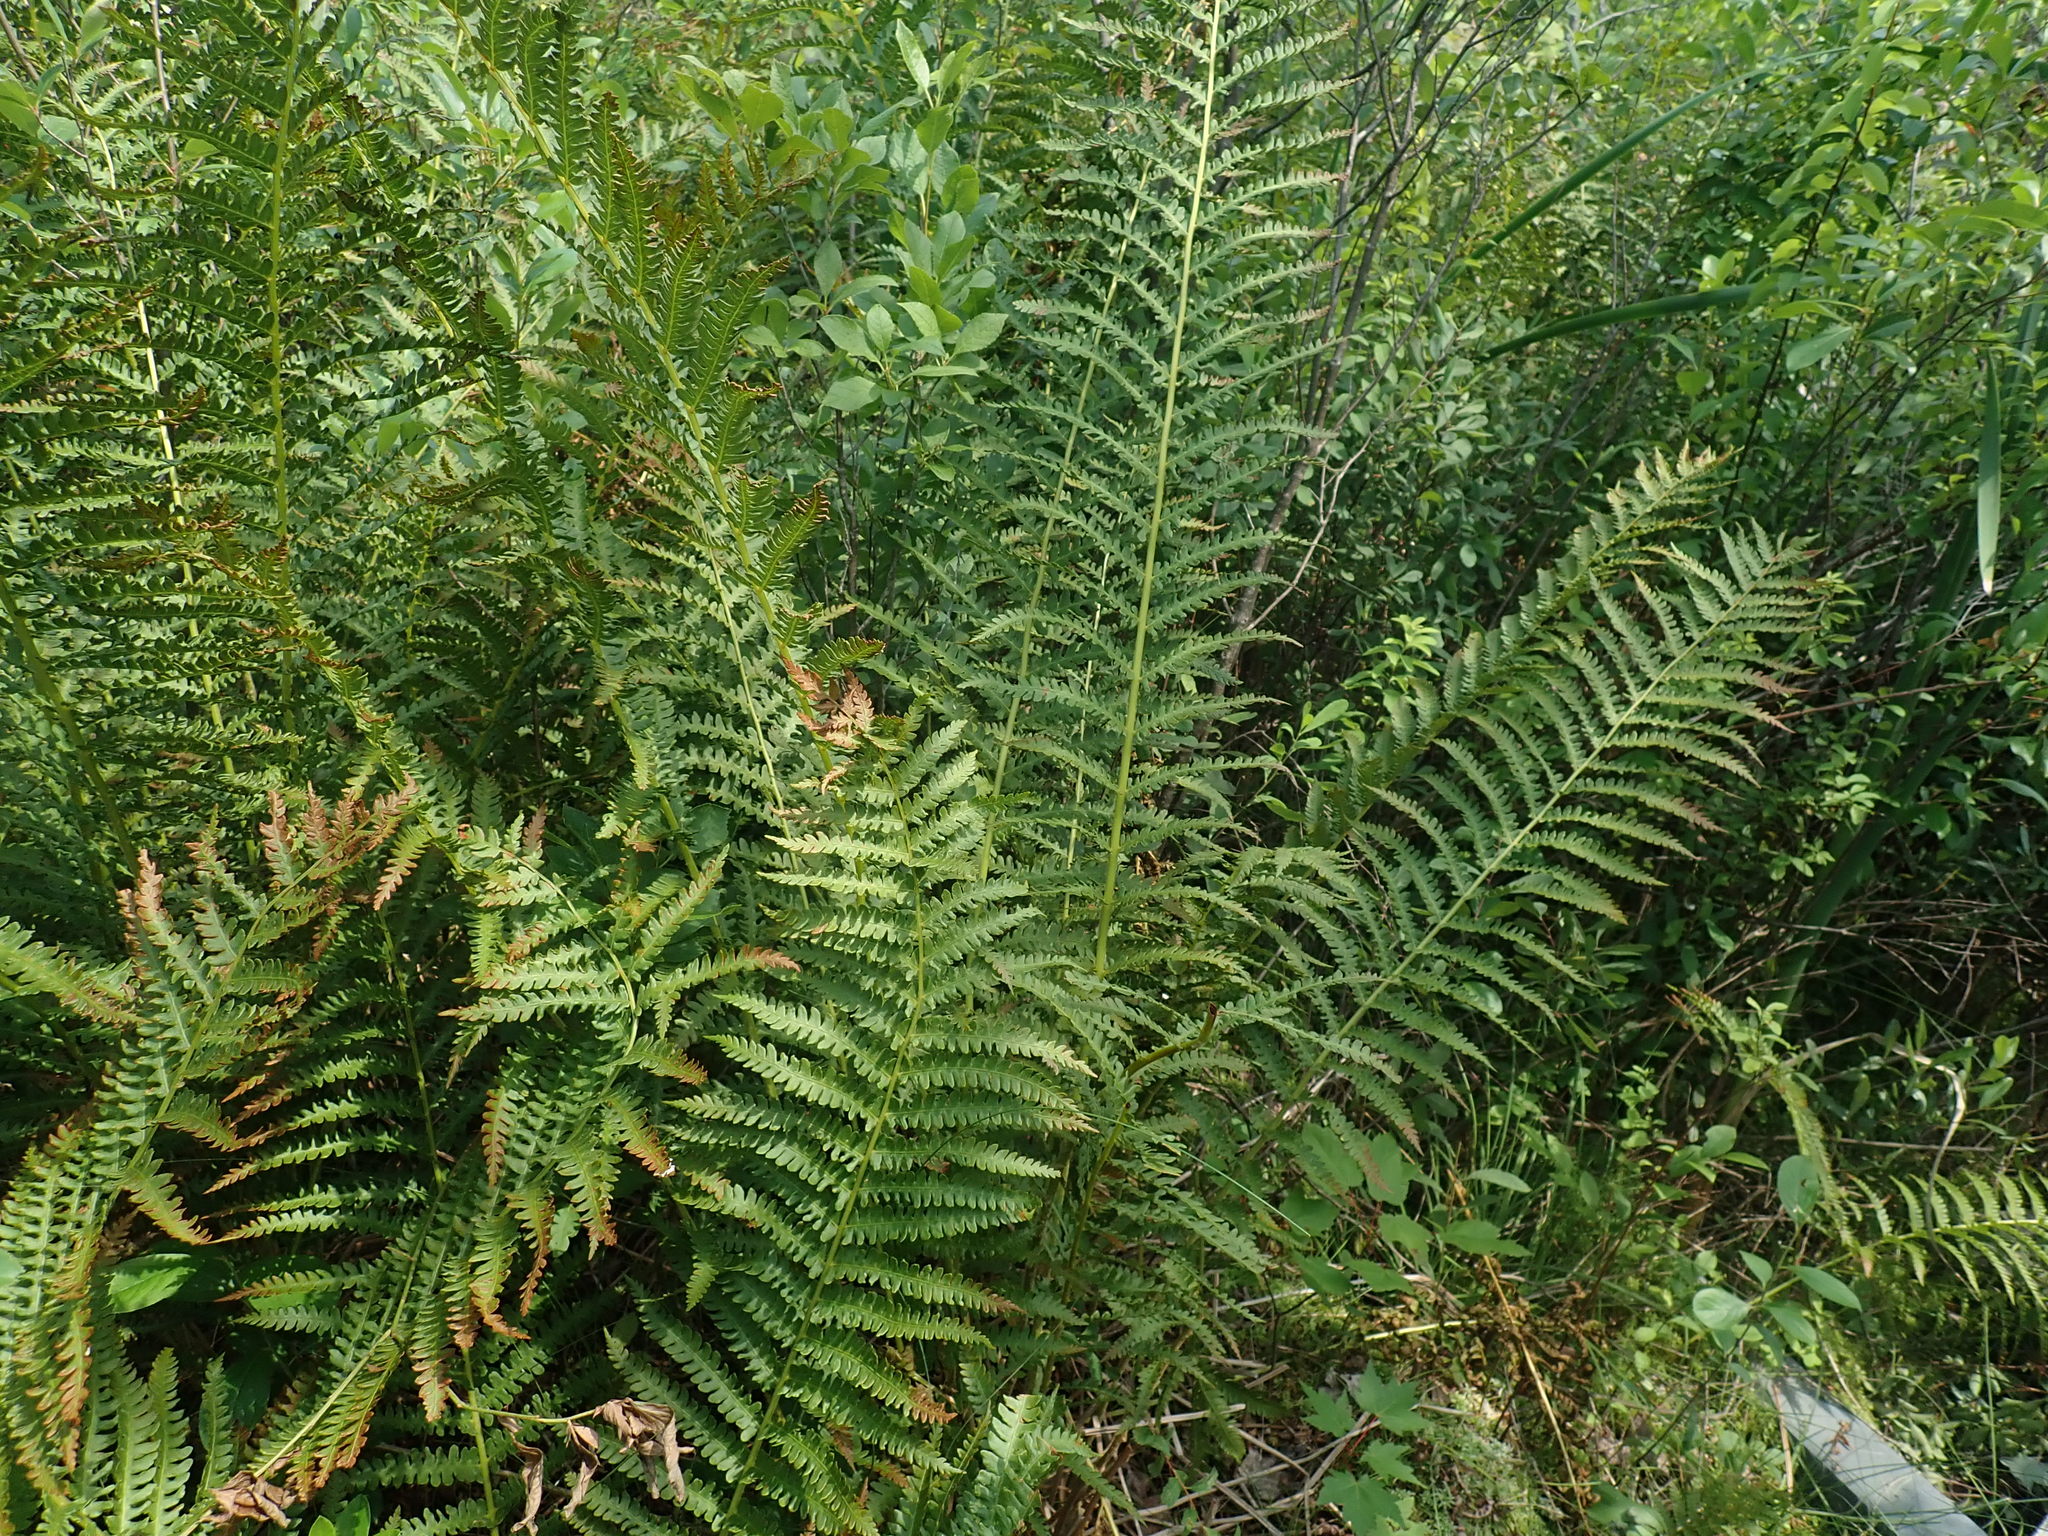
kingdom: Plantae
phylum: Tracheophyta
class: Polypodiopsida
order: Osmundales
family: Osmundaceae
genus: Osmundastrum
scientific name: Osmundastrum cinnamomeum
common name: Cinnamon fern
